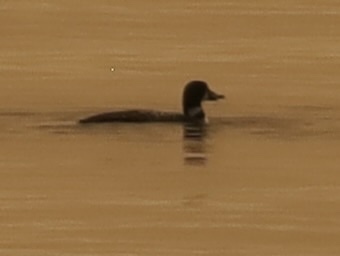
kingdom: Animalia
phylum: Chordata
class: Aves
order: Gaviiformes
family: Gaviidae
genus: Gavia
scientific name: Gavia immer
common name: Common loon
